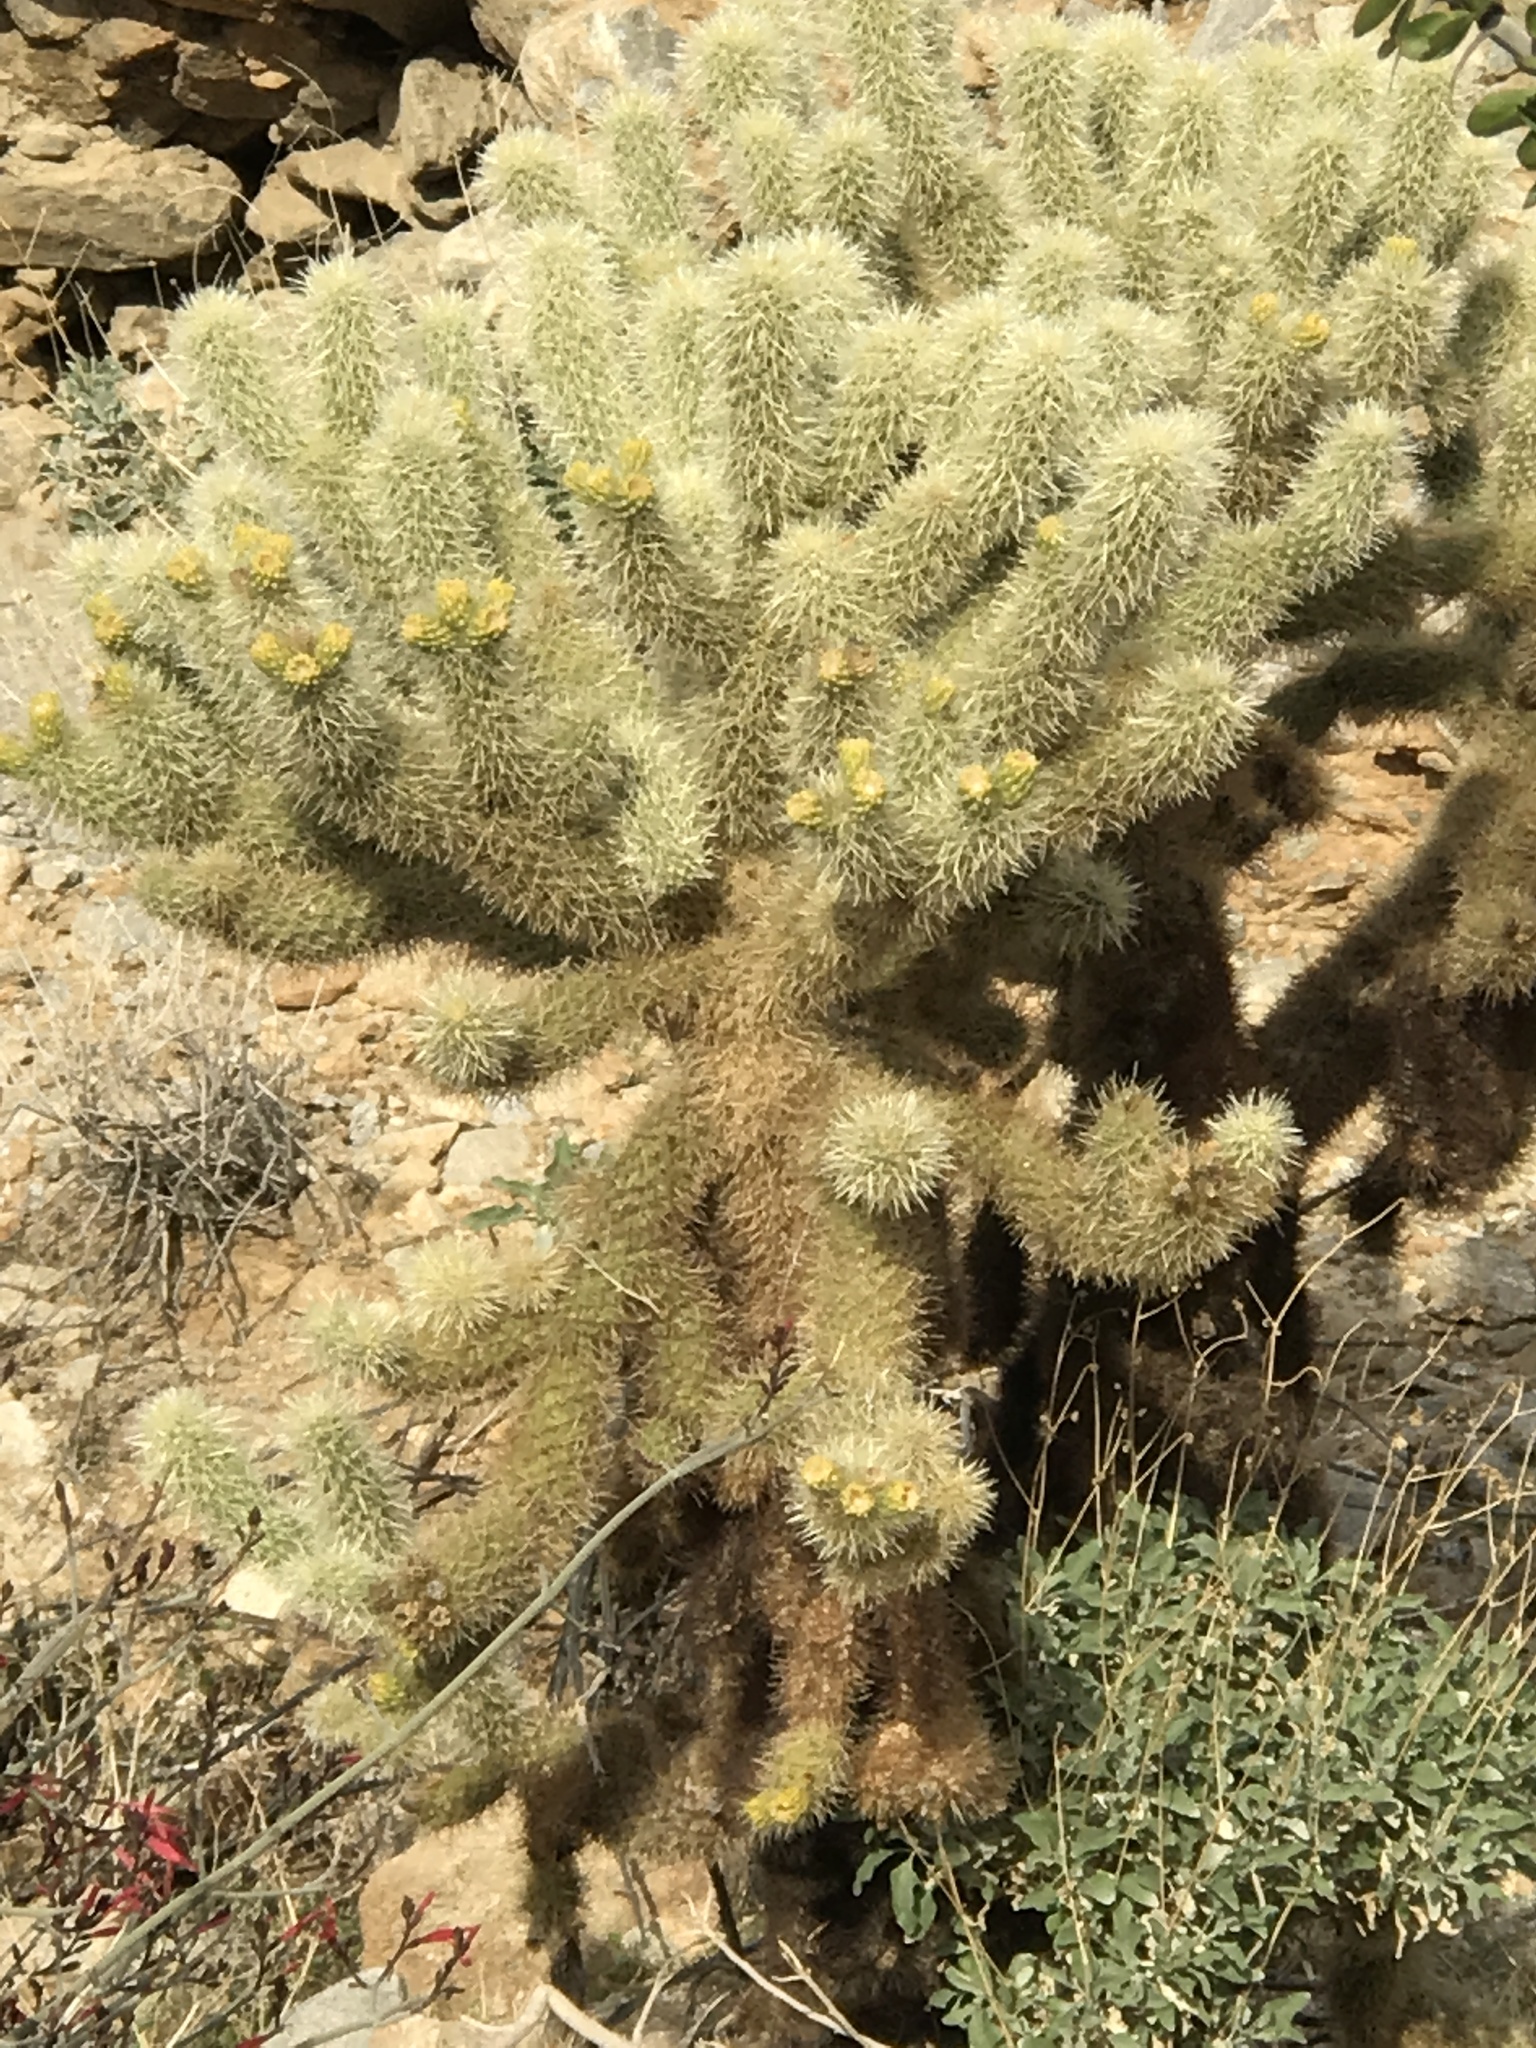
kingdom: Plantae
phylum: Tracheophyta
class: Magnoliopsida
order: Caryophyllales
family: Cactaceae
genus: Cylindropuntia
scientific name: Cylindropuntia fosbergii
